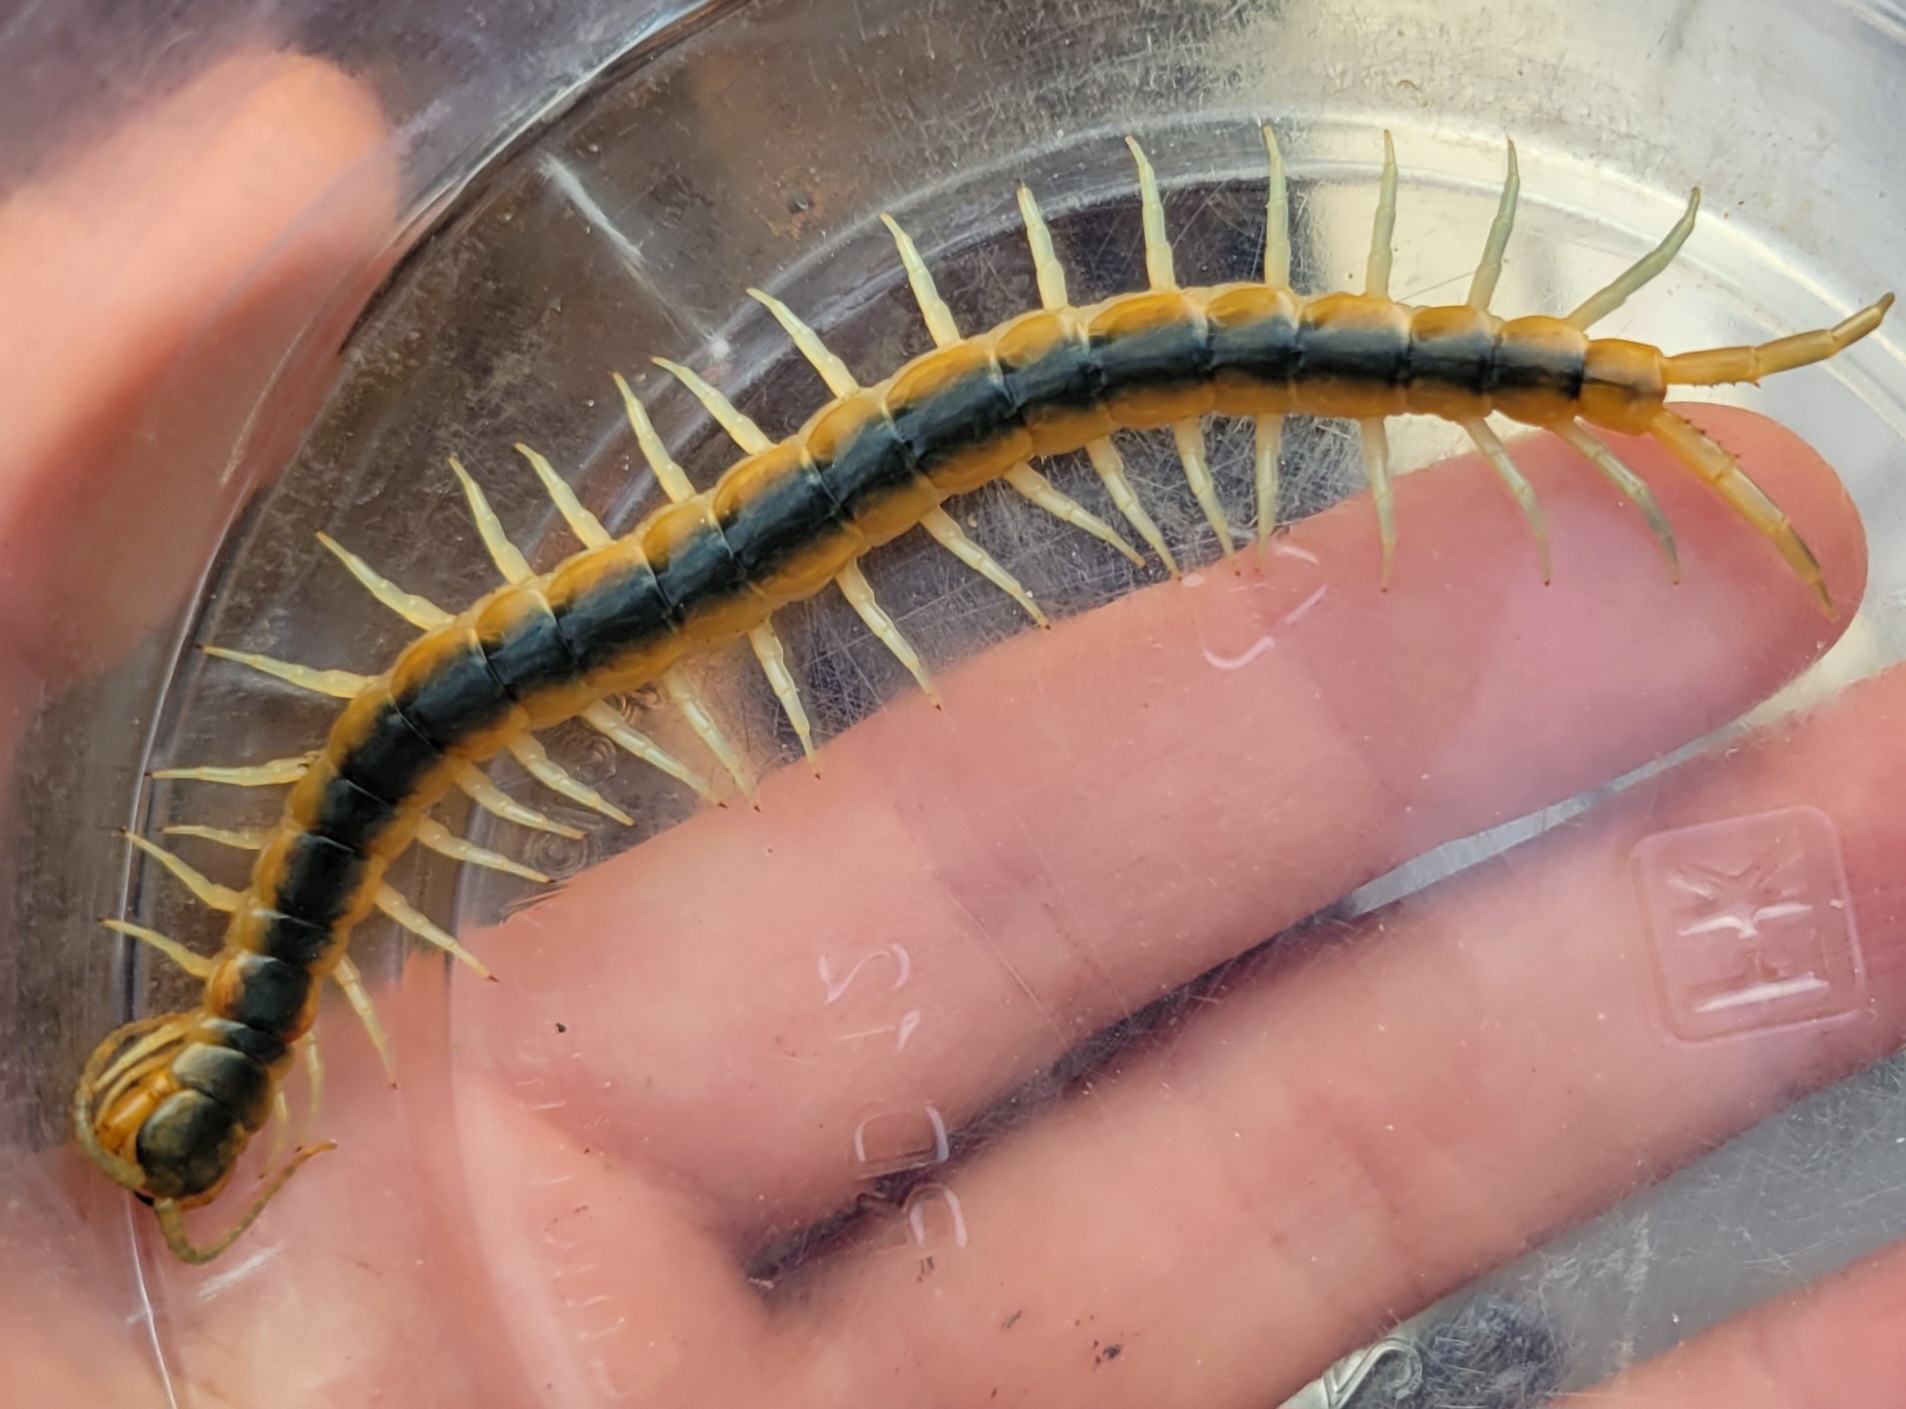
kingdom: Animalia
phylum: Arthropoda
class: Chilopoda
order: Scolopendromorpha
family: Scolopendridae
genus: Scolopendra
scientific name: Scolopendra viridis
